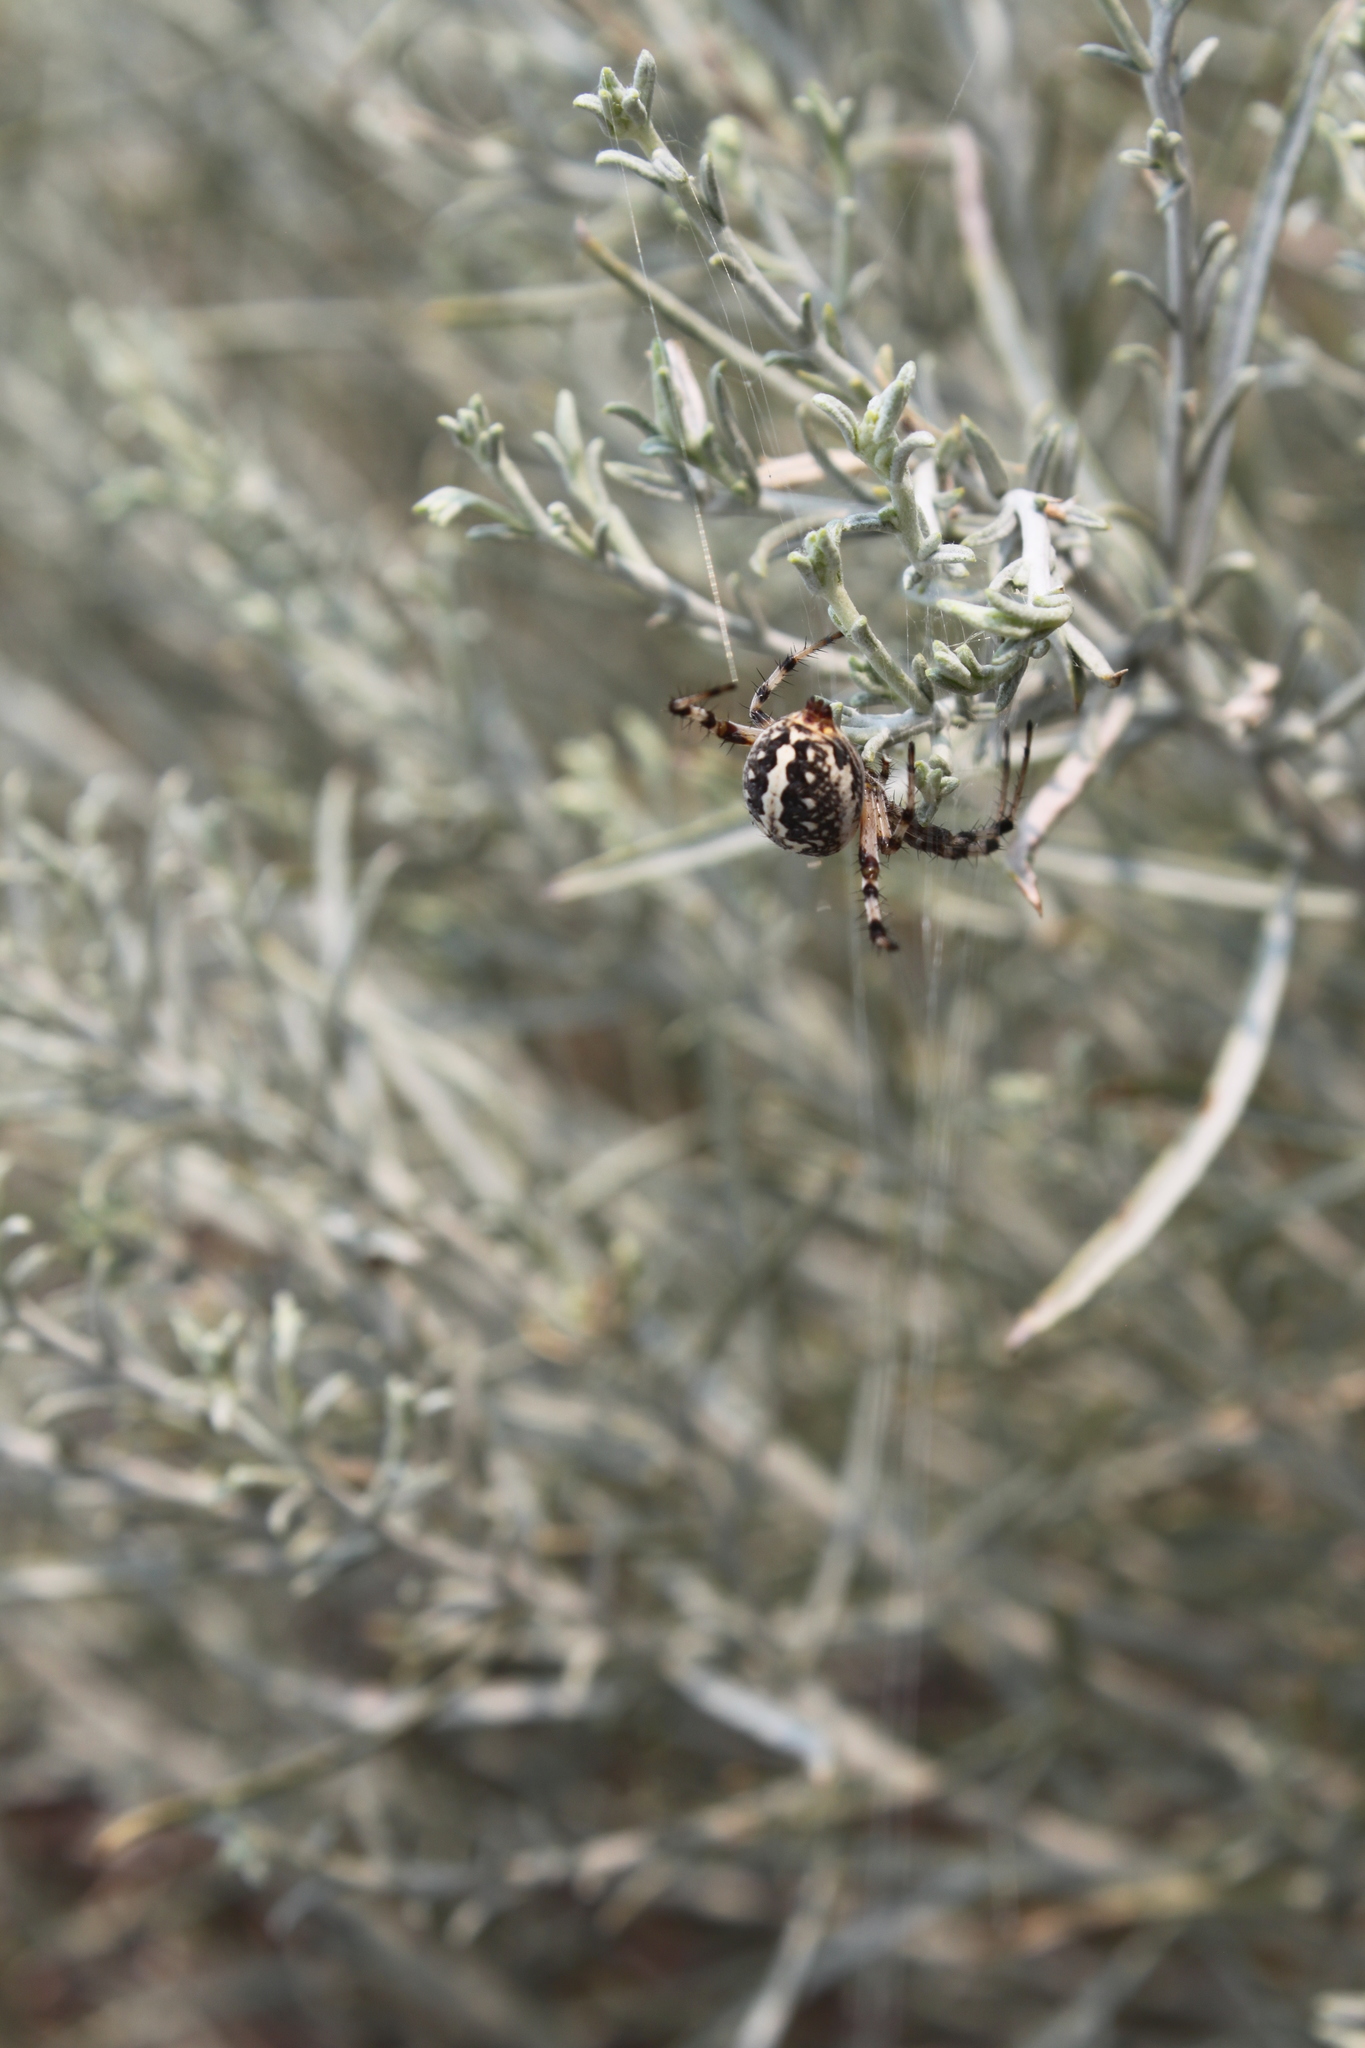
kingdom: Animalia
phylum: Arthropoda
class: Arachnida
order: Araneae
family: Araneidae
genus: Neoscona
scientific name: Neoscona oaxacensis
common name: Orb weavers
